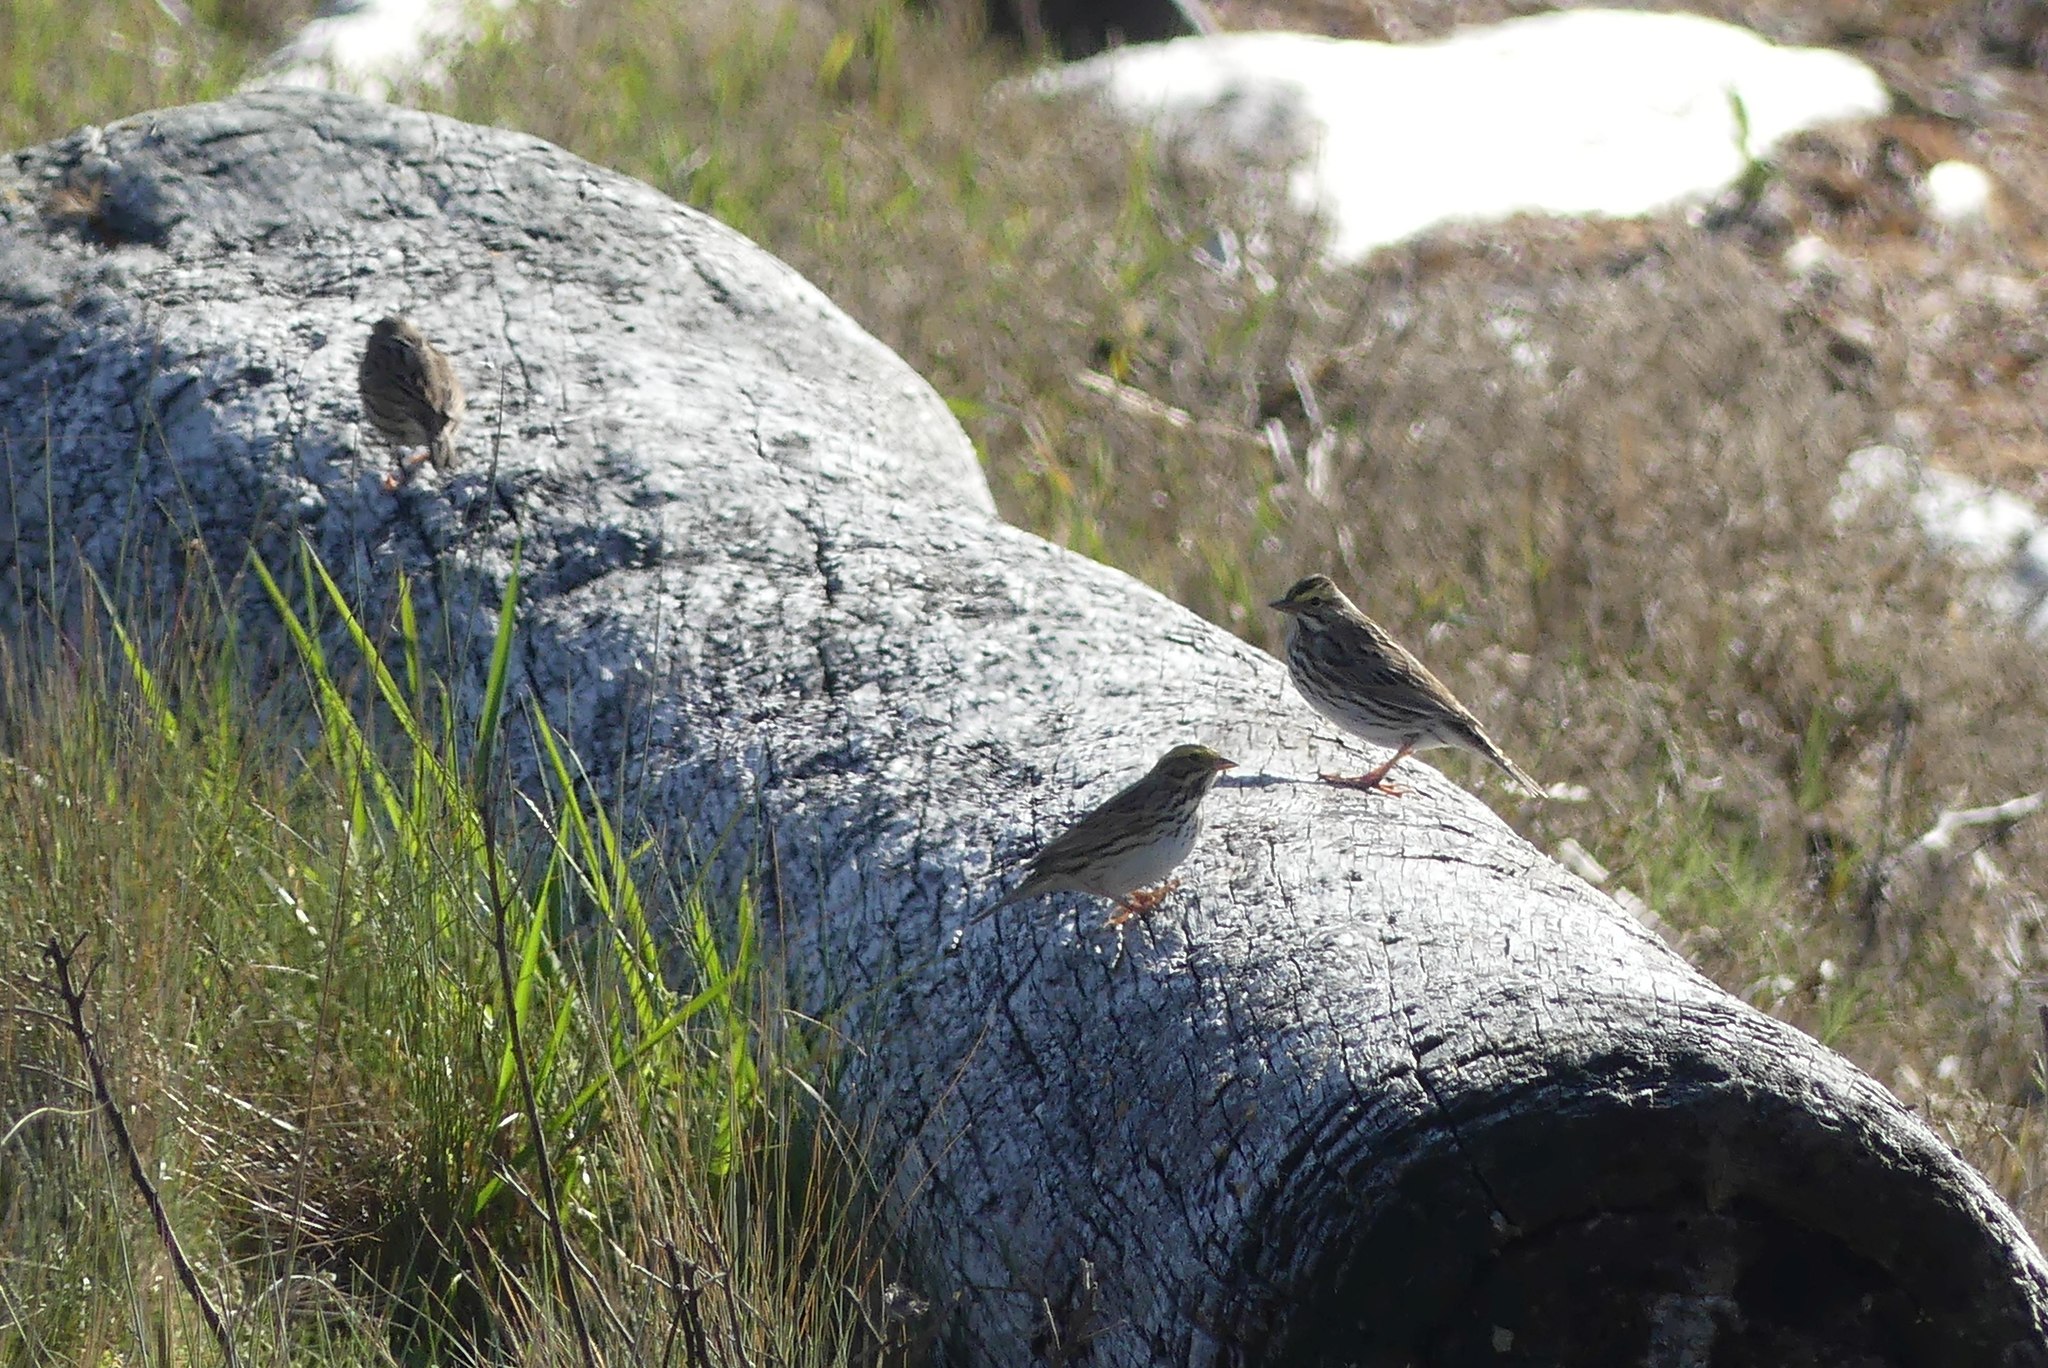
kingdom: Animalia
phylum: Chordata
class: Aves
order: Passeriformes
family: Passerellidae
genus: Passerculus
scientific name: Passerculus sandwichensis
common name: Savannah sparrow
